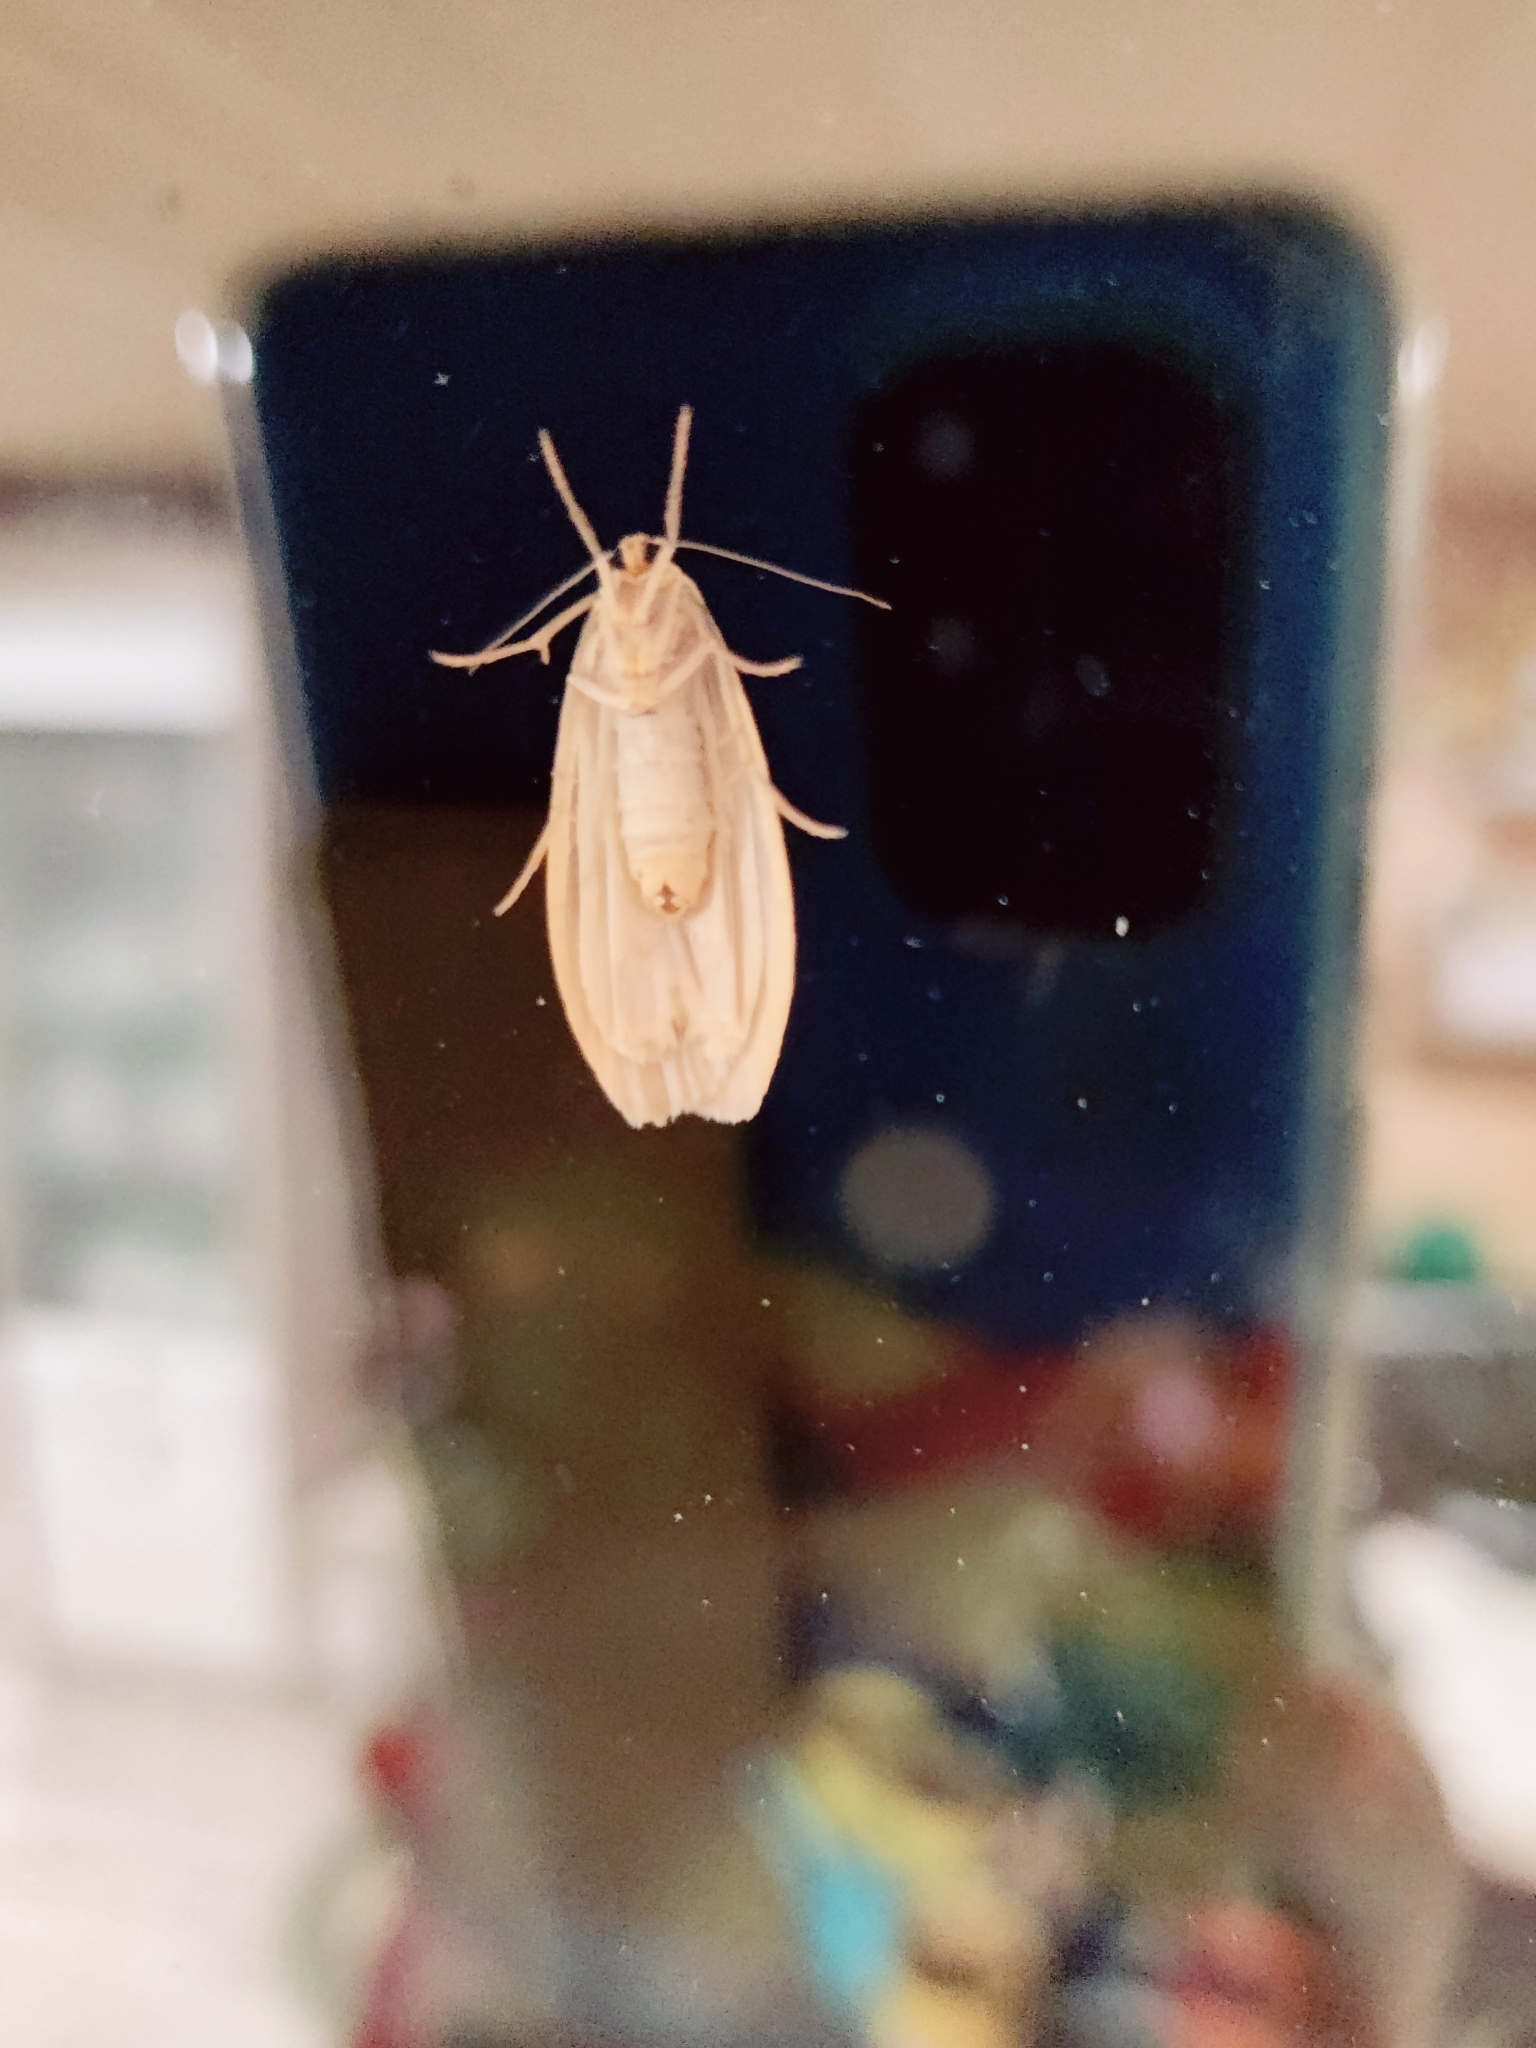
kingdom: Animalia
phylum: Arthropoda
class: Insecta
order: Lepidoptera
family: Erebidae
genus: Collita
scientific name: Collita griseola
